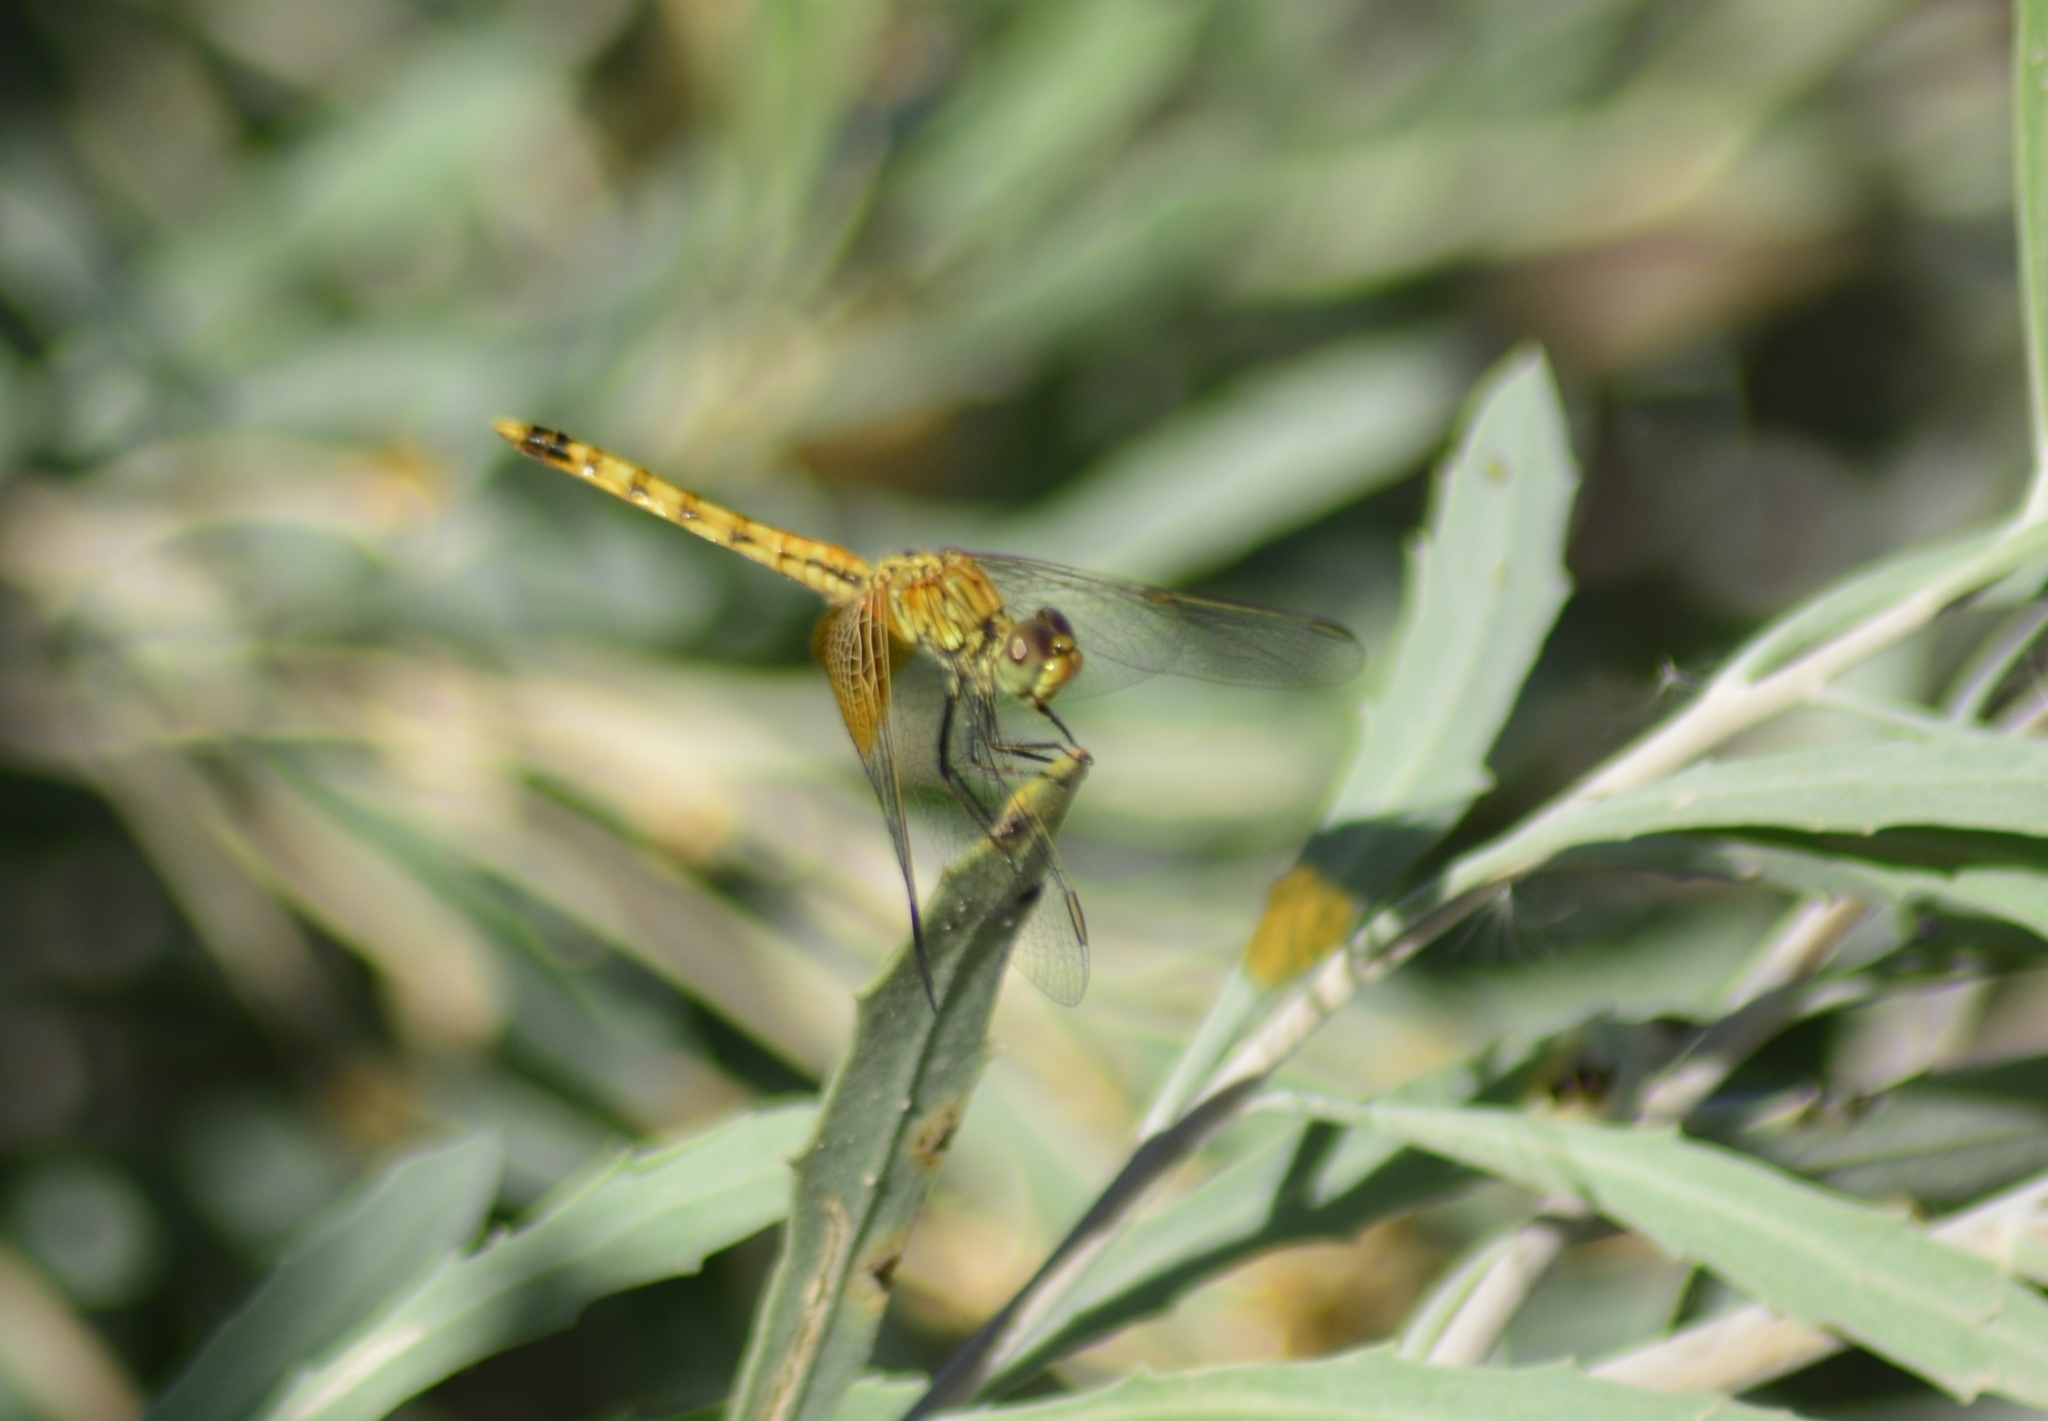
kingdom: Animalia
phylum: Arthropoda
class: Insecta
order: Odonata
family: Libellulidae
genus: Erythrodiplax
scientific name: Erythrodiplax corallina
